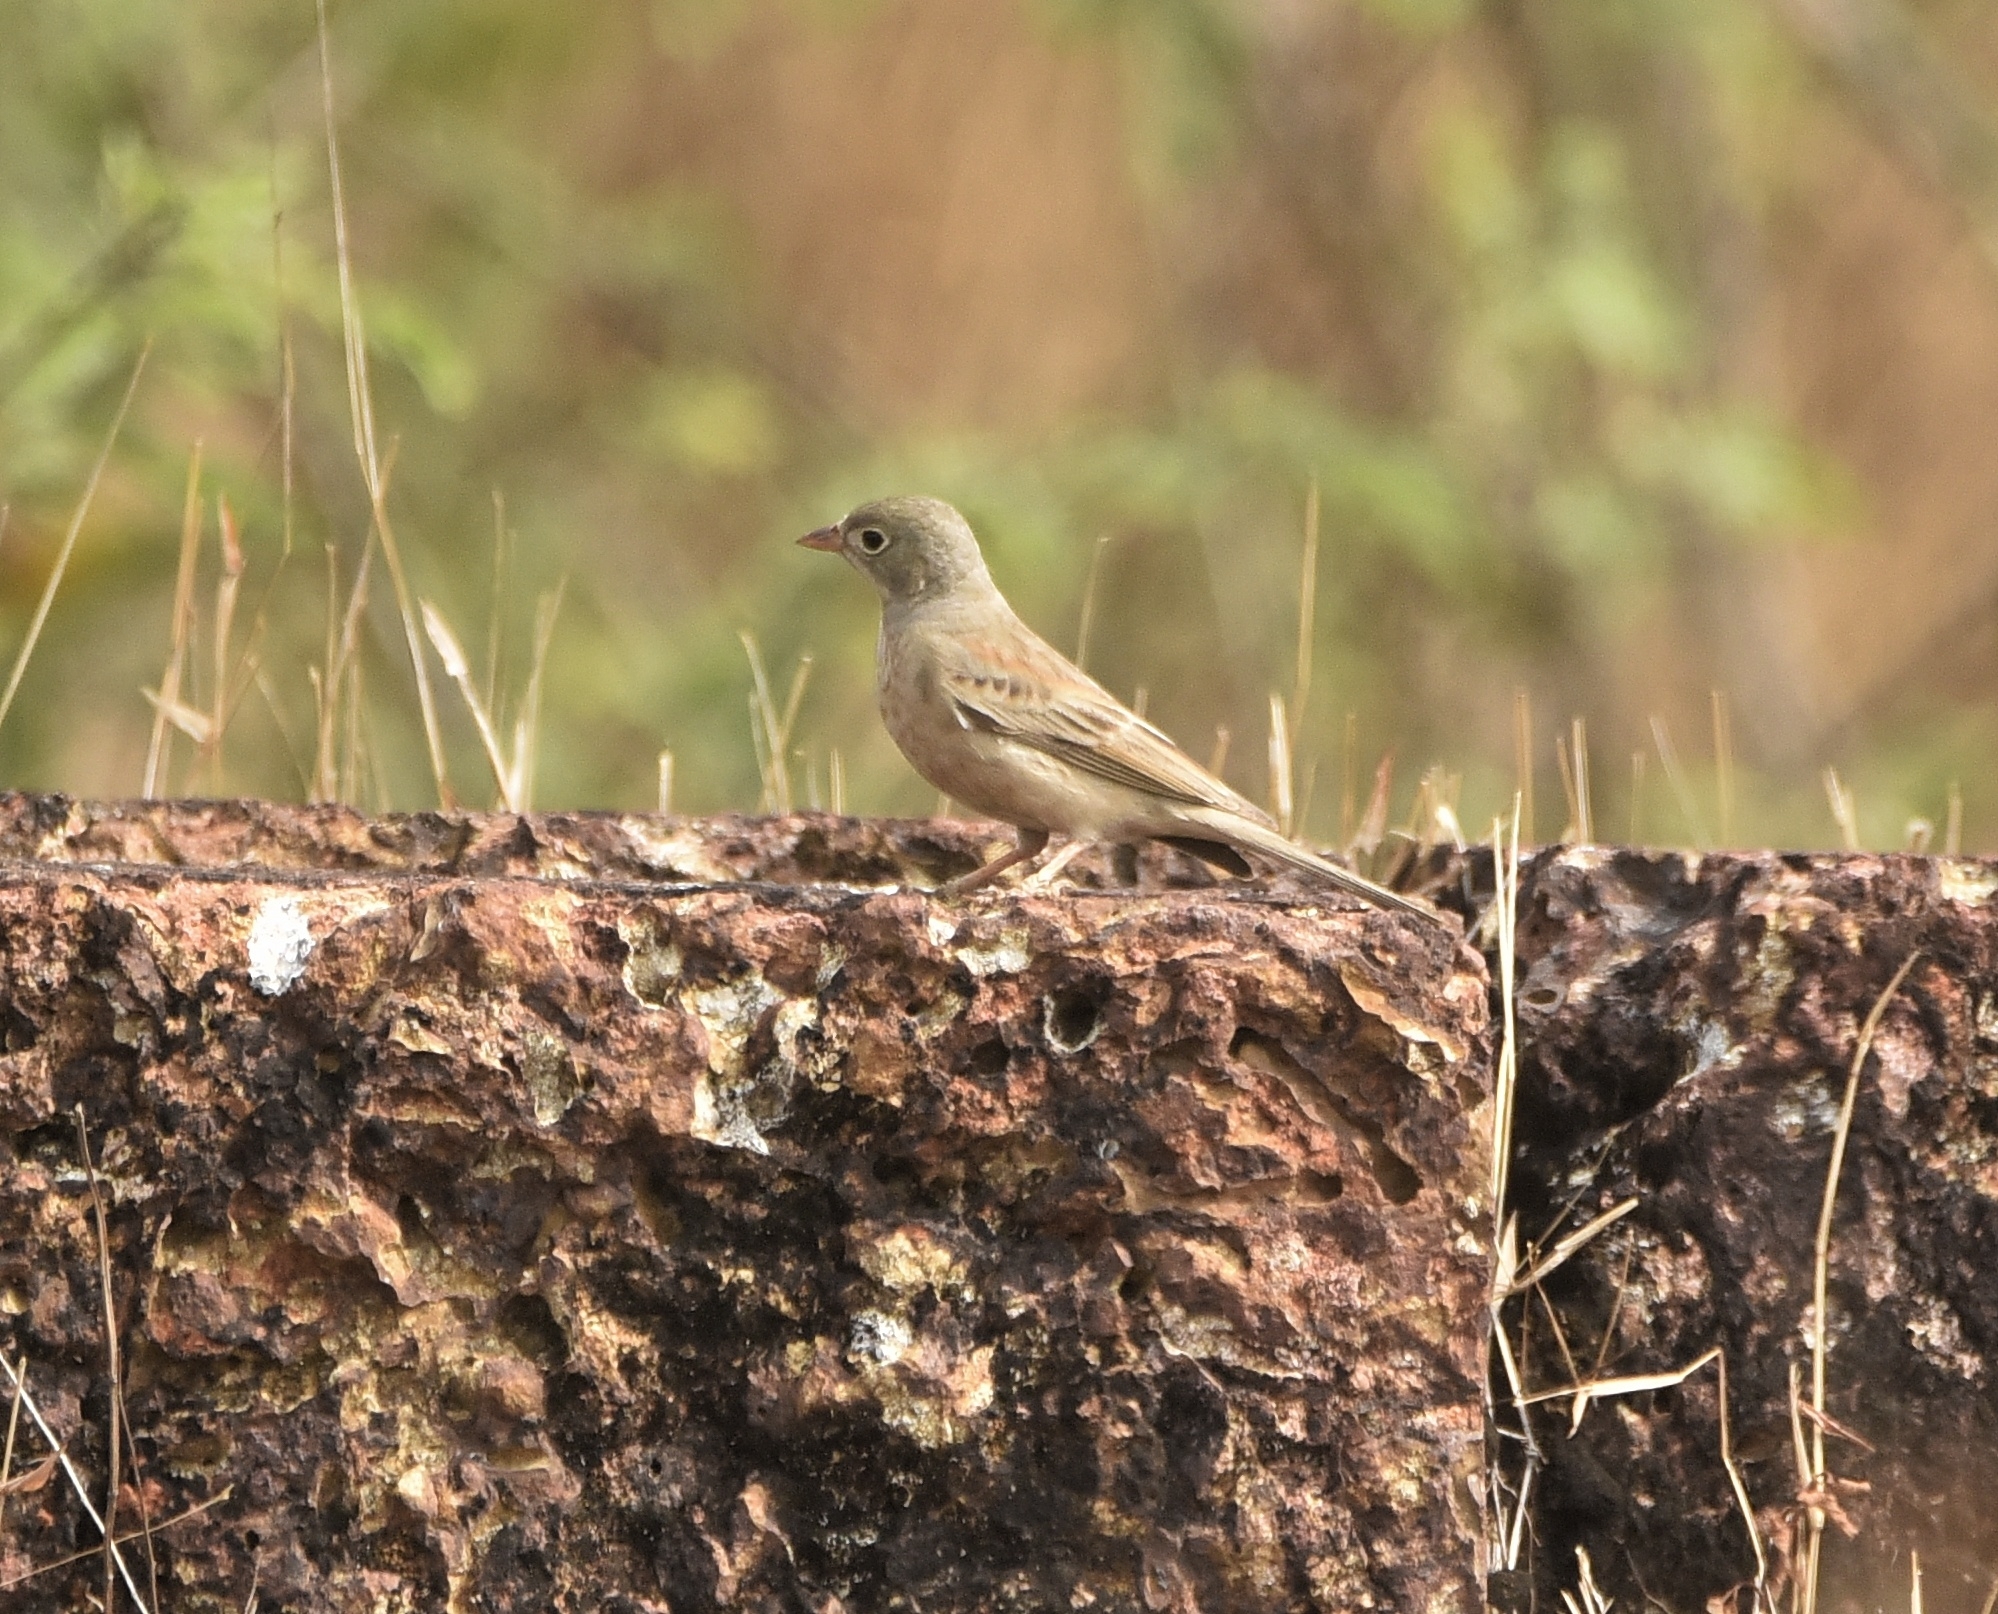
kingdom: Animalia
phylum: Chordata
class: Aves
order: Passeriformes
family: Emberizidae
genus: Emberiza
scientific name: Emberiza buchanani
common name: Grey-necked bunting
